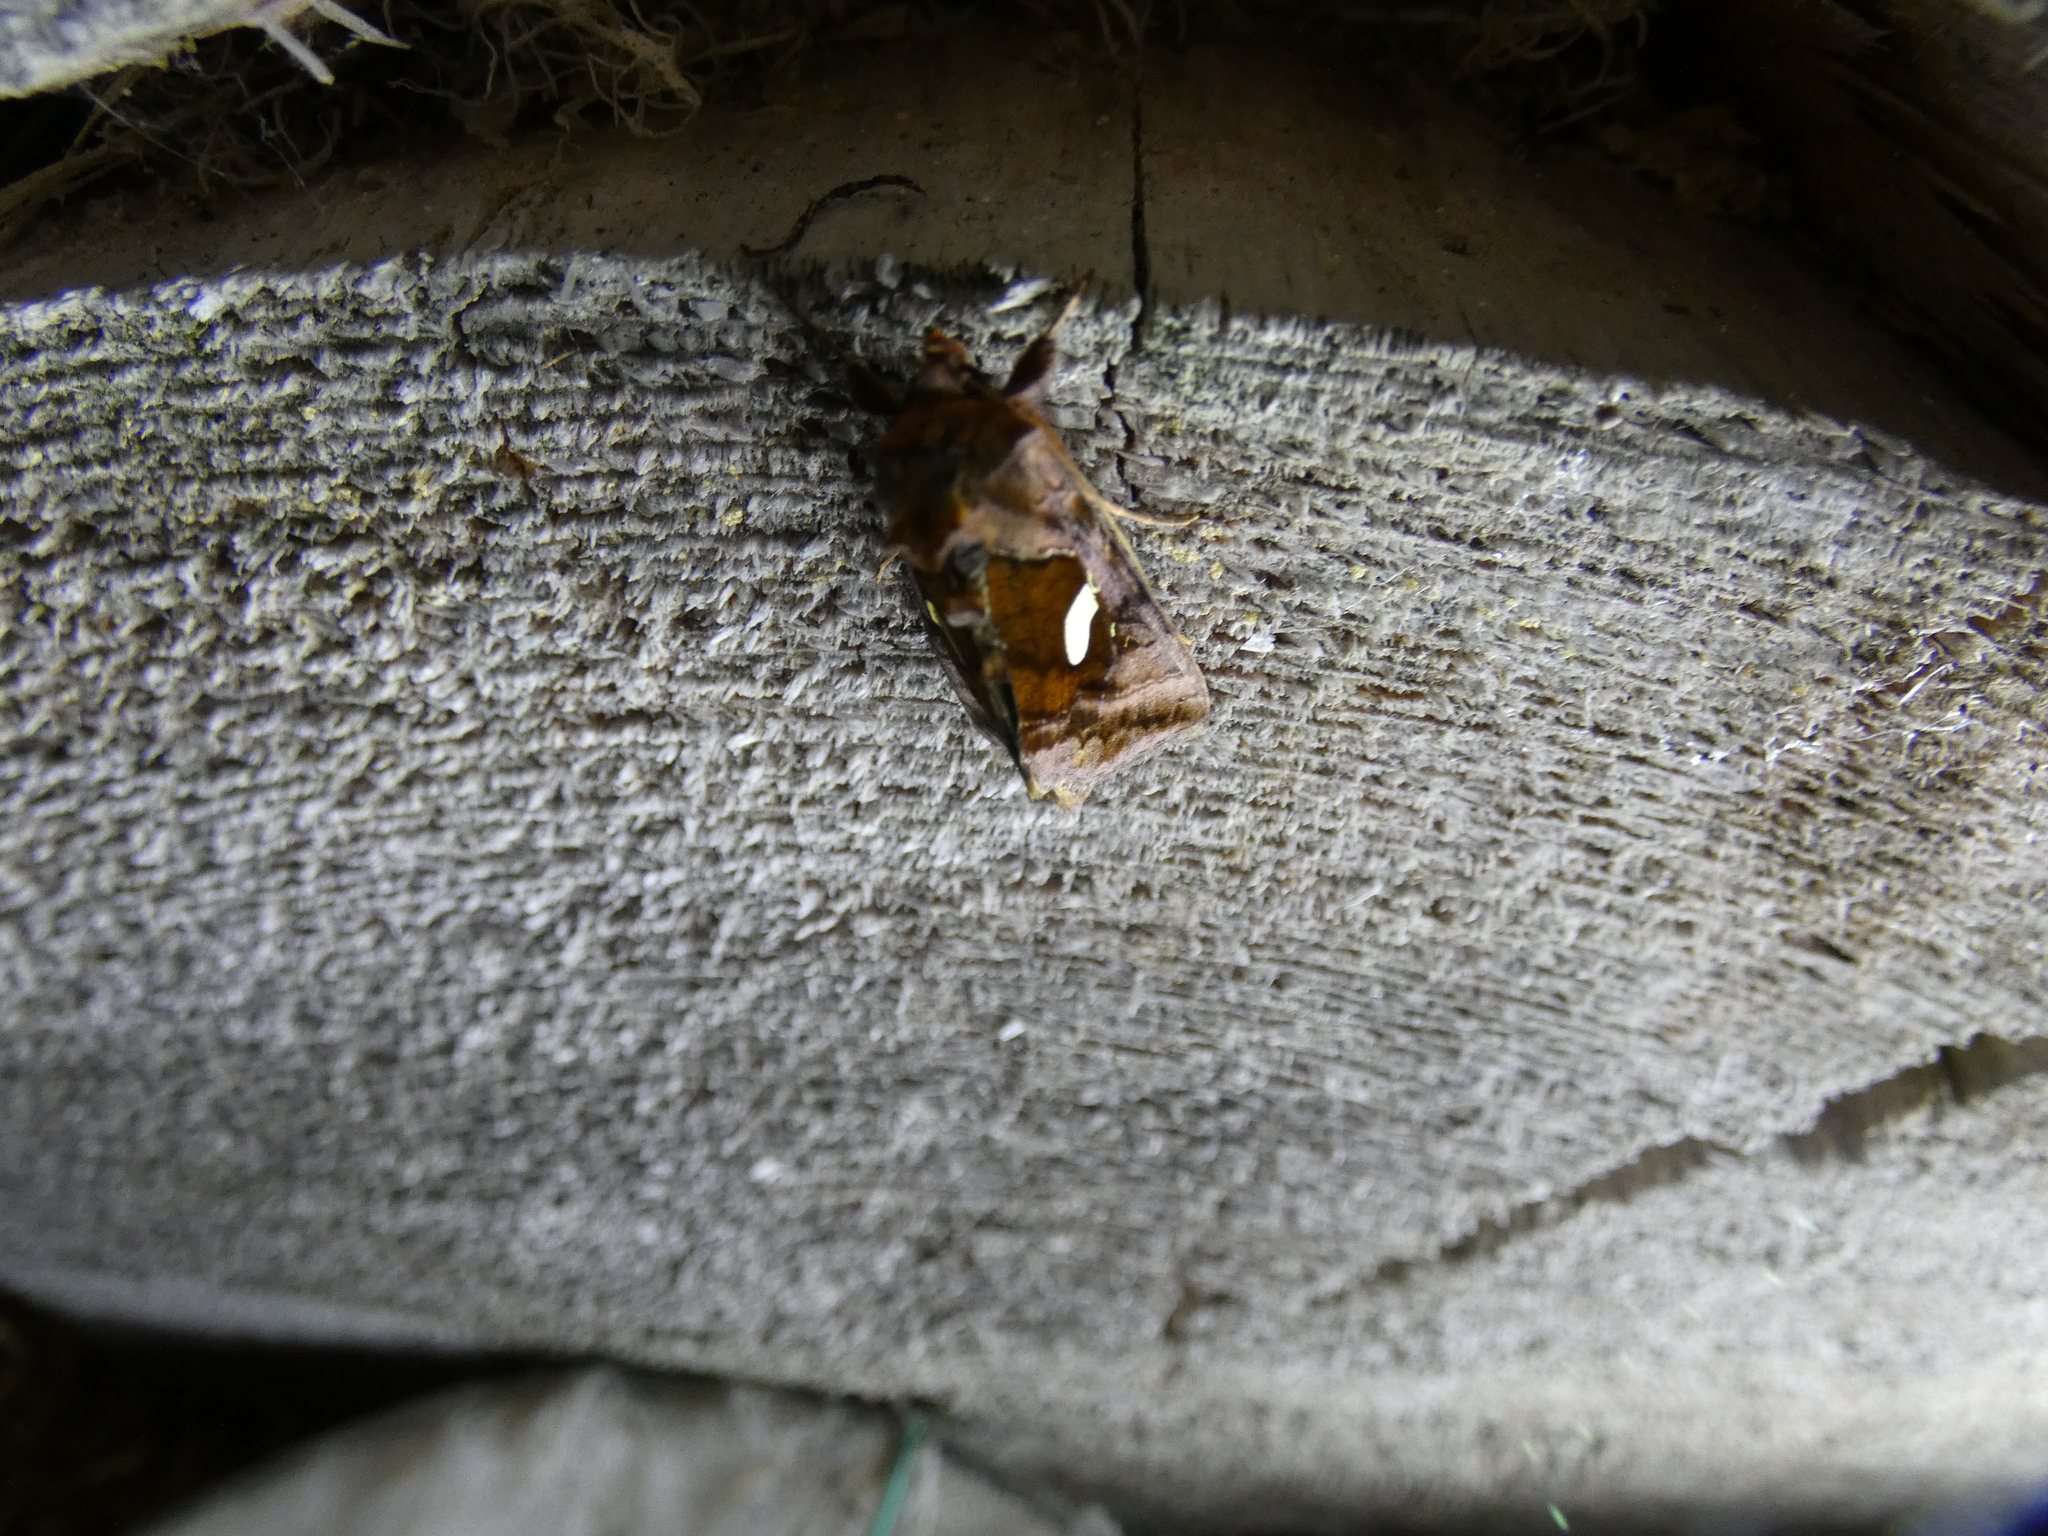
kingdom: Animalia
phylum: Arthropoda
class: Insecta
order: Lepidoptera
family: Noctuidae
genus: Autographa
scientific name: Autographa excelsa
